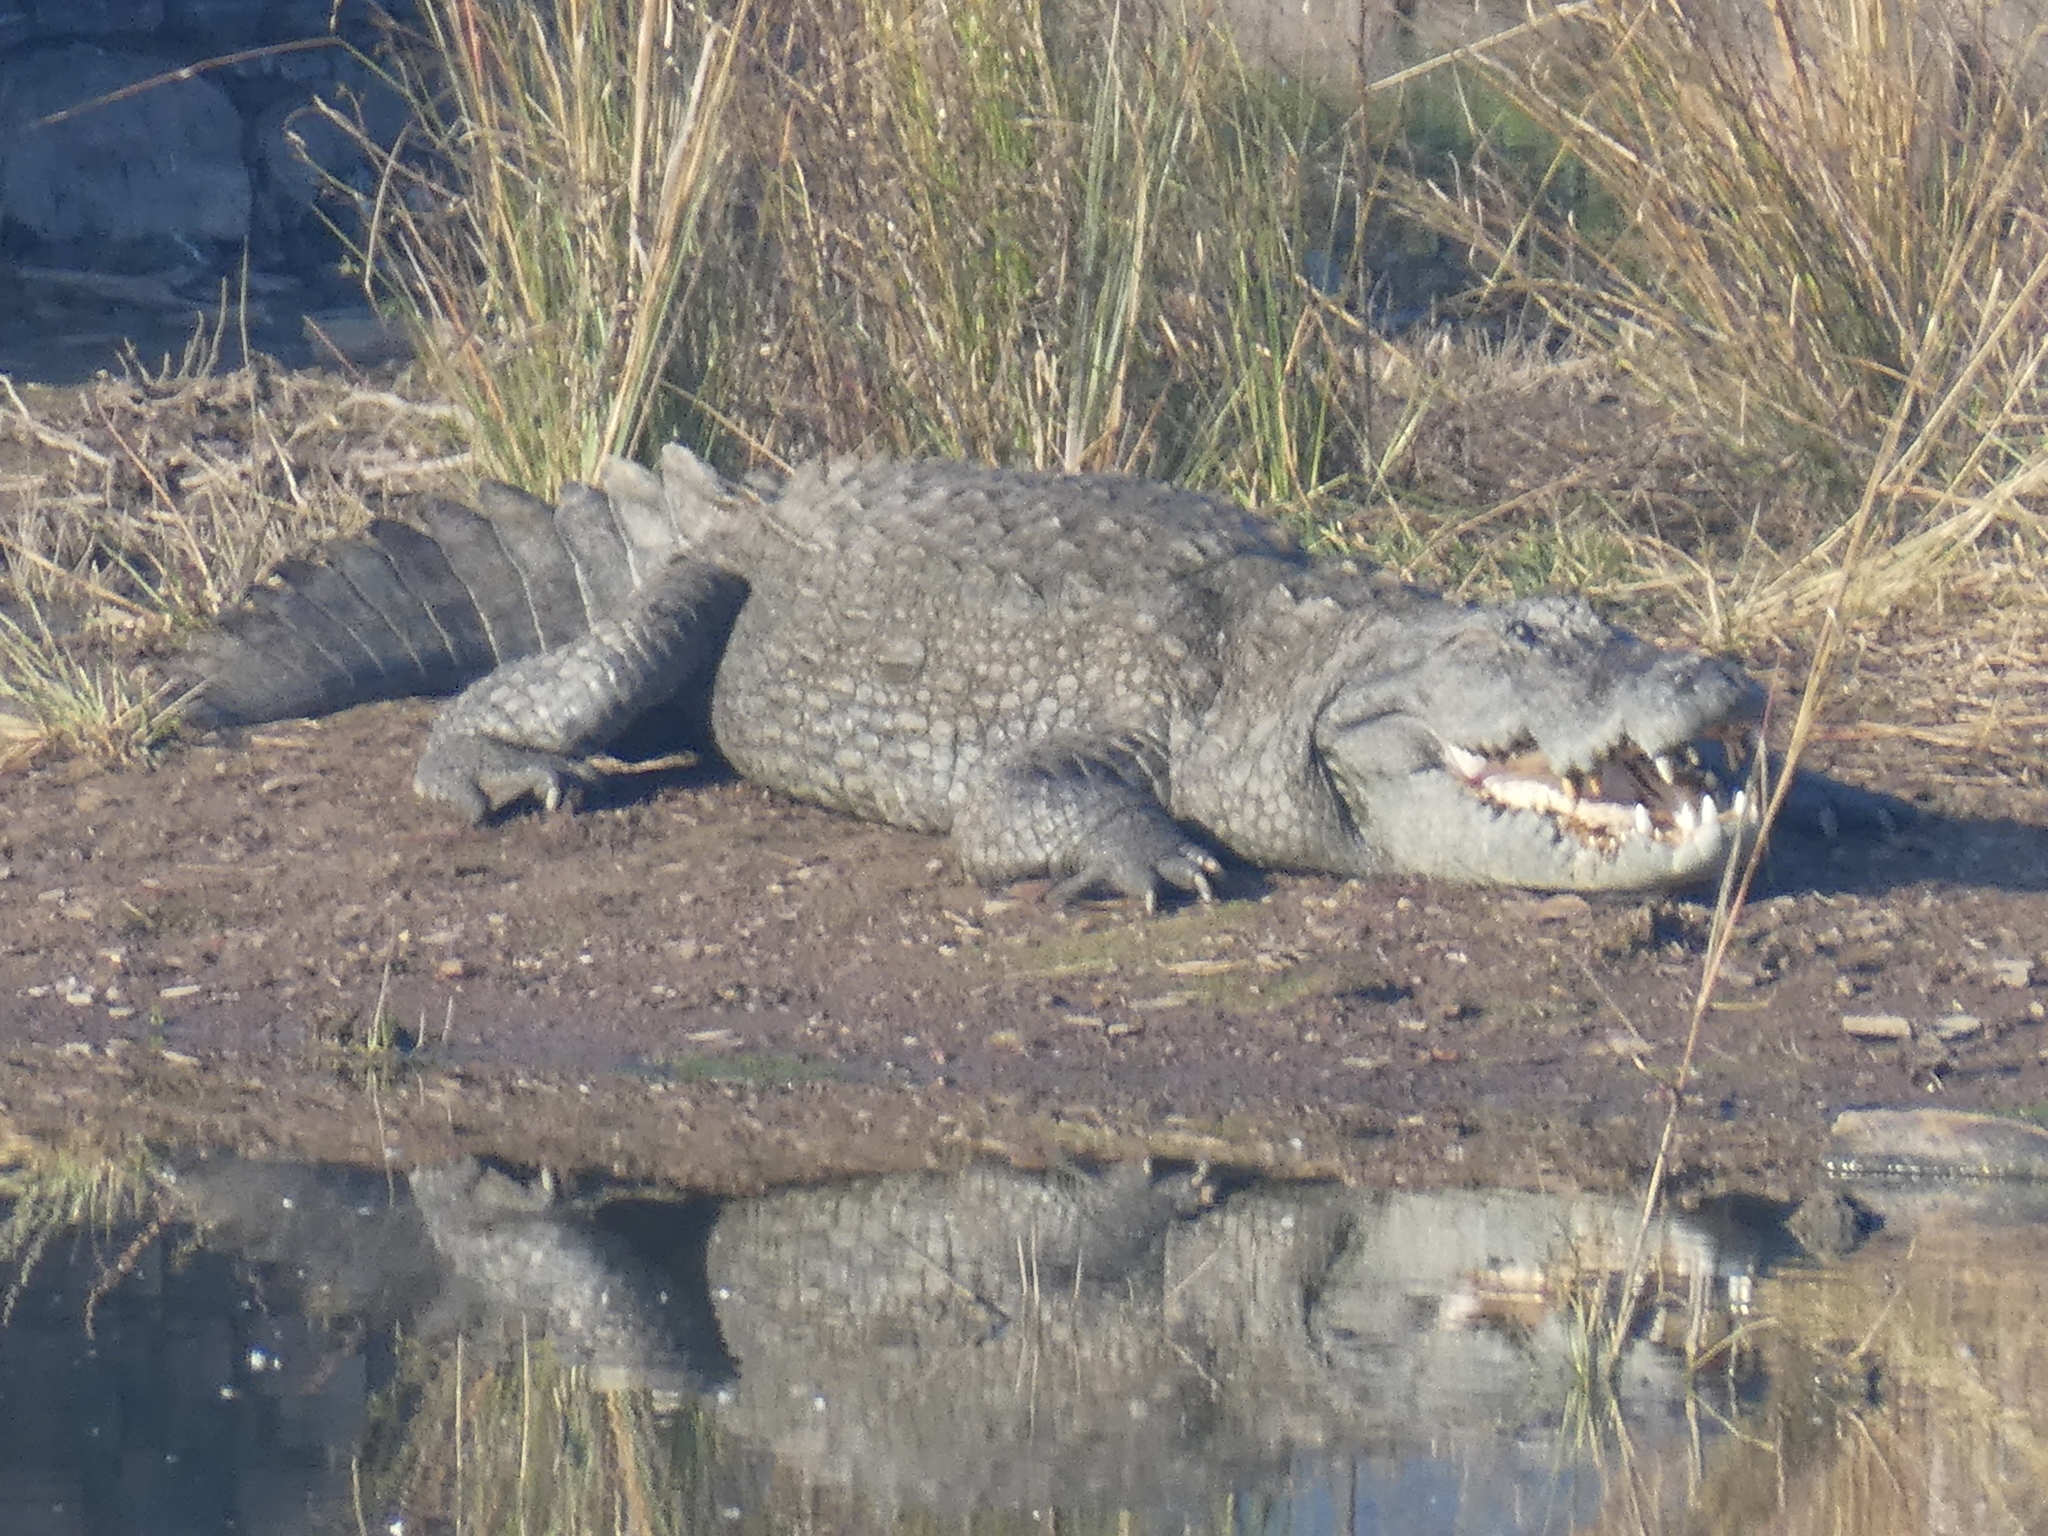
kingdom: Animalia
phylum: Chordata
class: Crocodylia
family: Crocodylidae
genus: Crocodylus
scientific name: Crocodylus palustris
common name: Mugger crocodile
